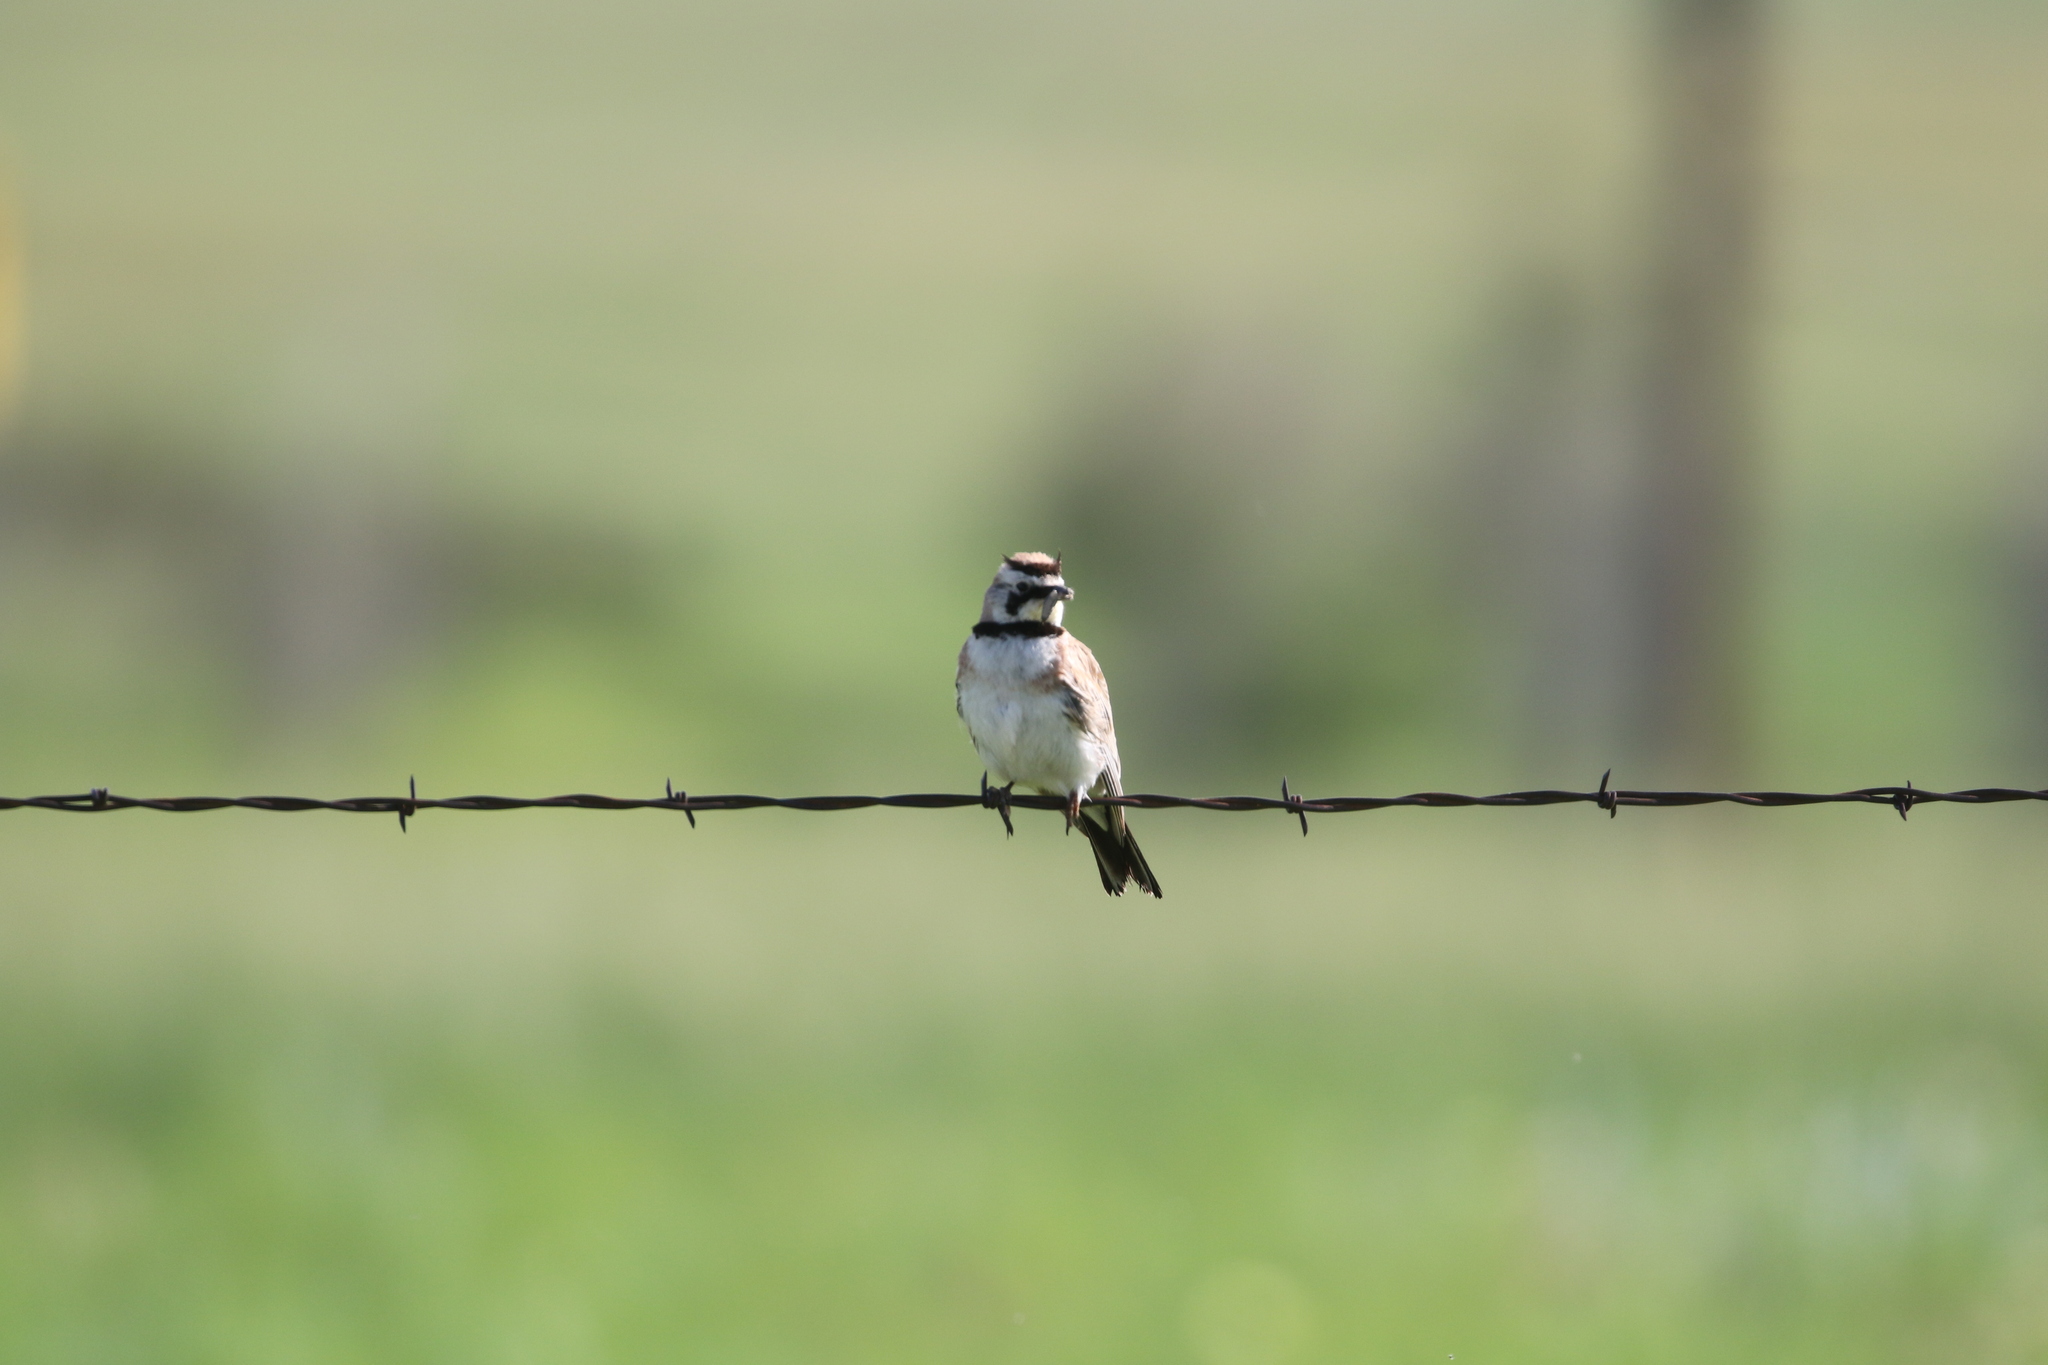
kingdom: Animalia
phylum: Chordata
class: Aves
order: Passeriformes
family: Alaudidae
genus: Eremophila
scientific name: Eremophila alpestris
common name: Horned lark
